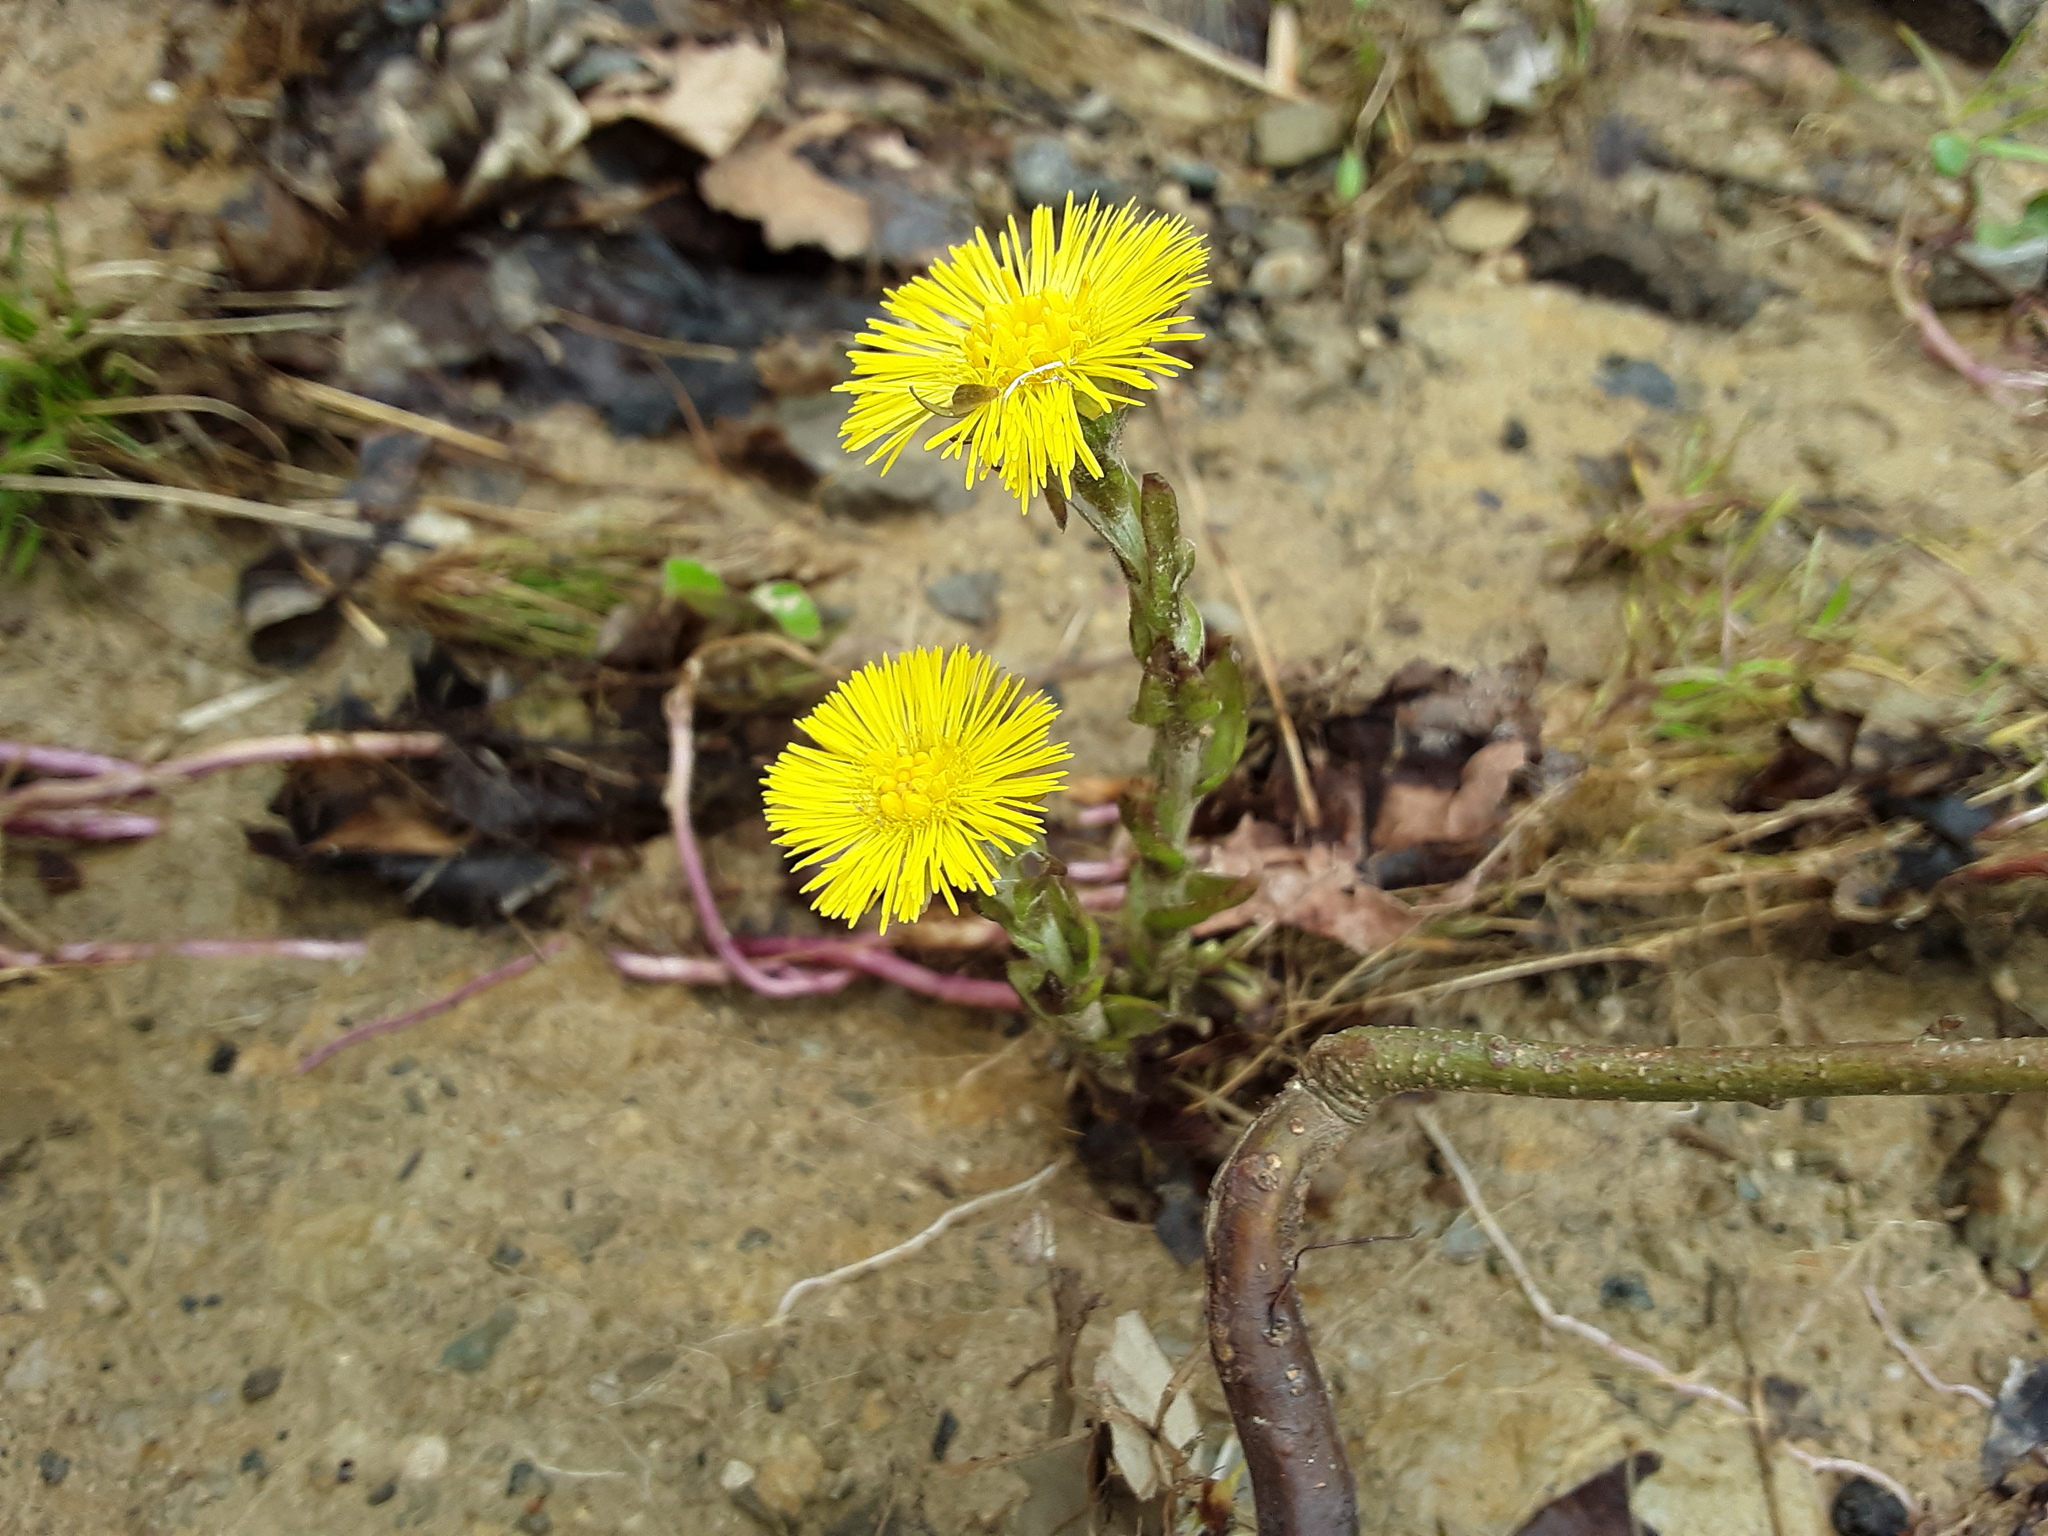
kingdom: Plantae
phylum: Tracheophyta
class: Magnoliopsida
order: Asterales
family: Asteraceae
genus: Tussilago
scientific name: Tussilago farfara
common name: Coltsfoot
